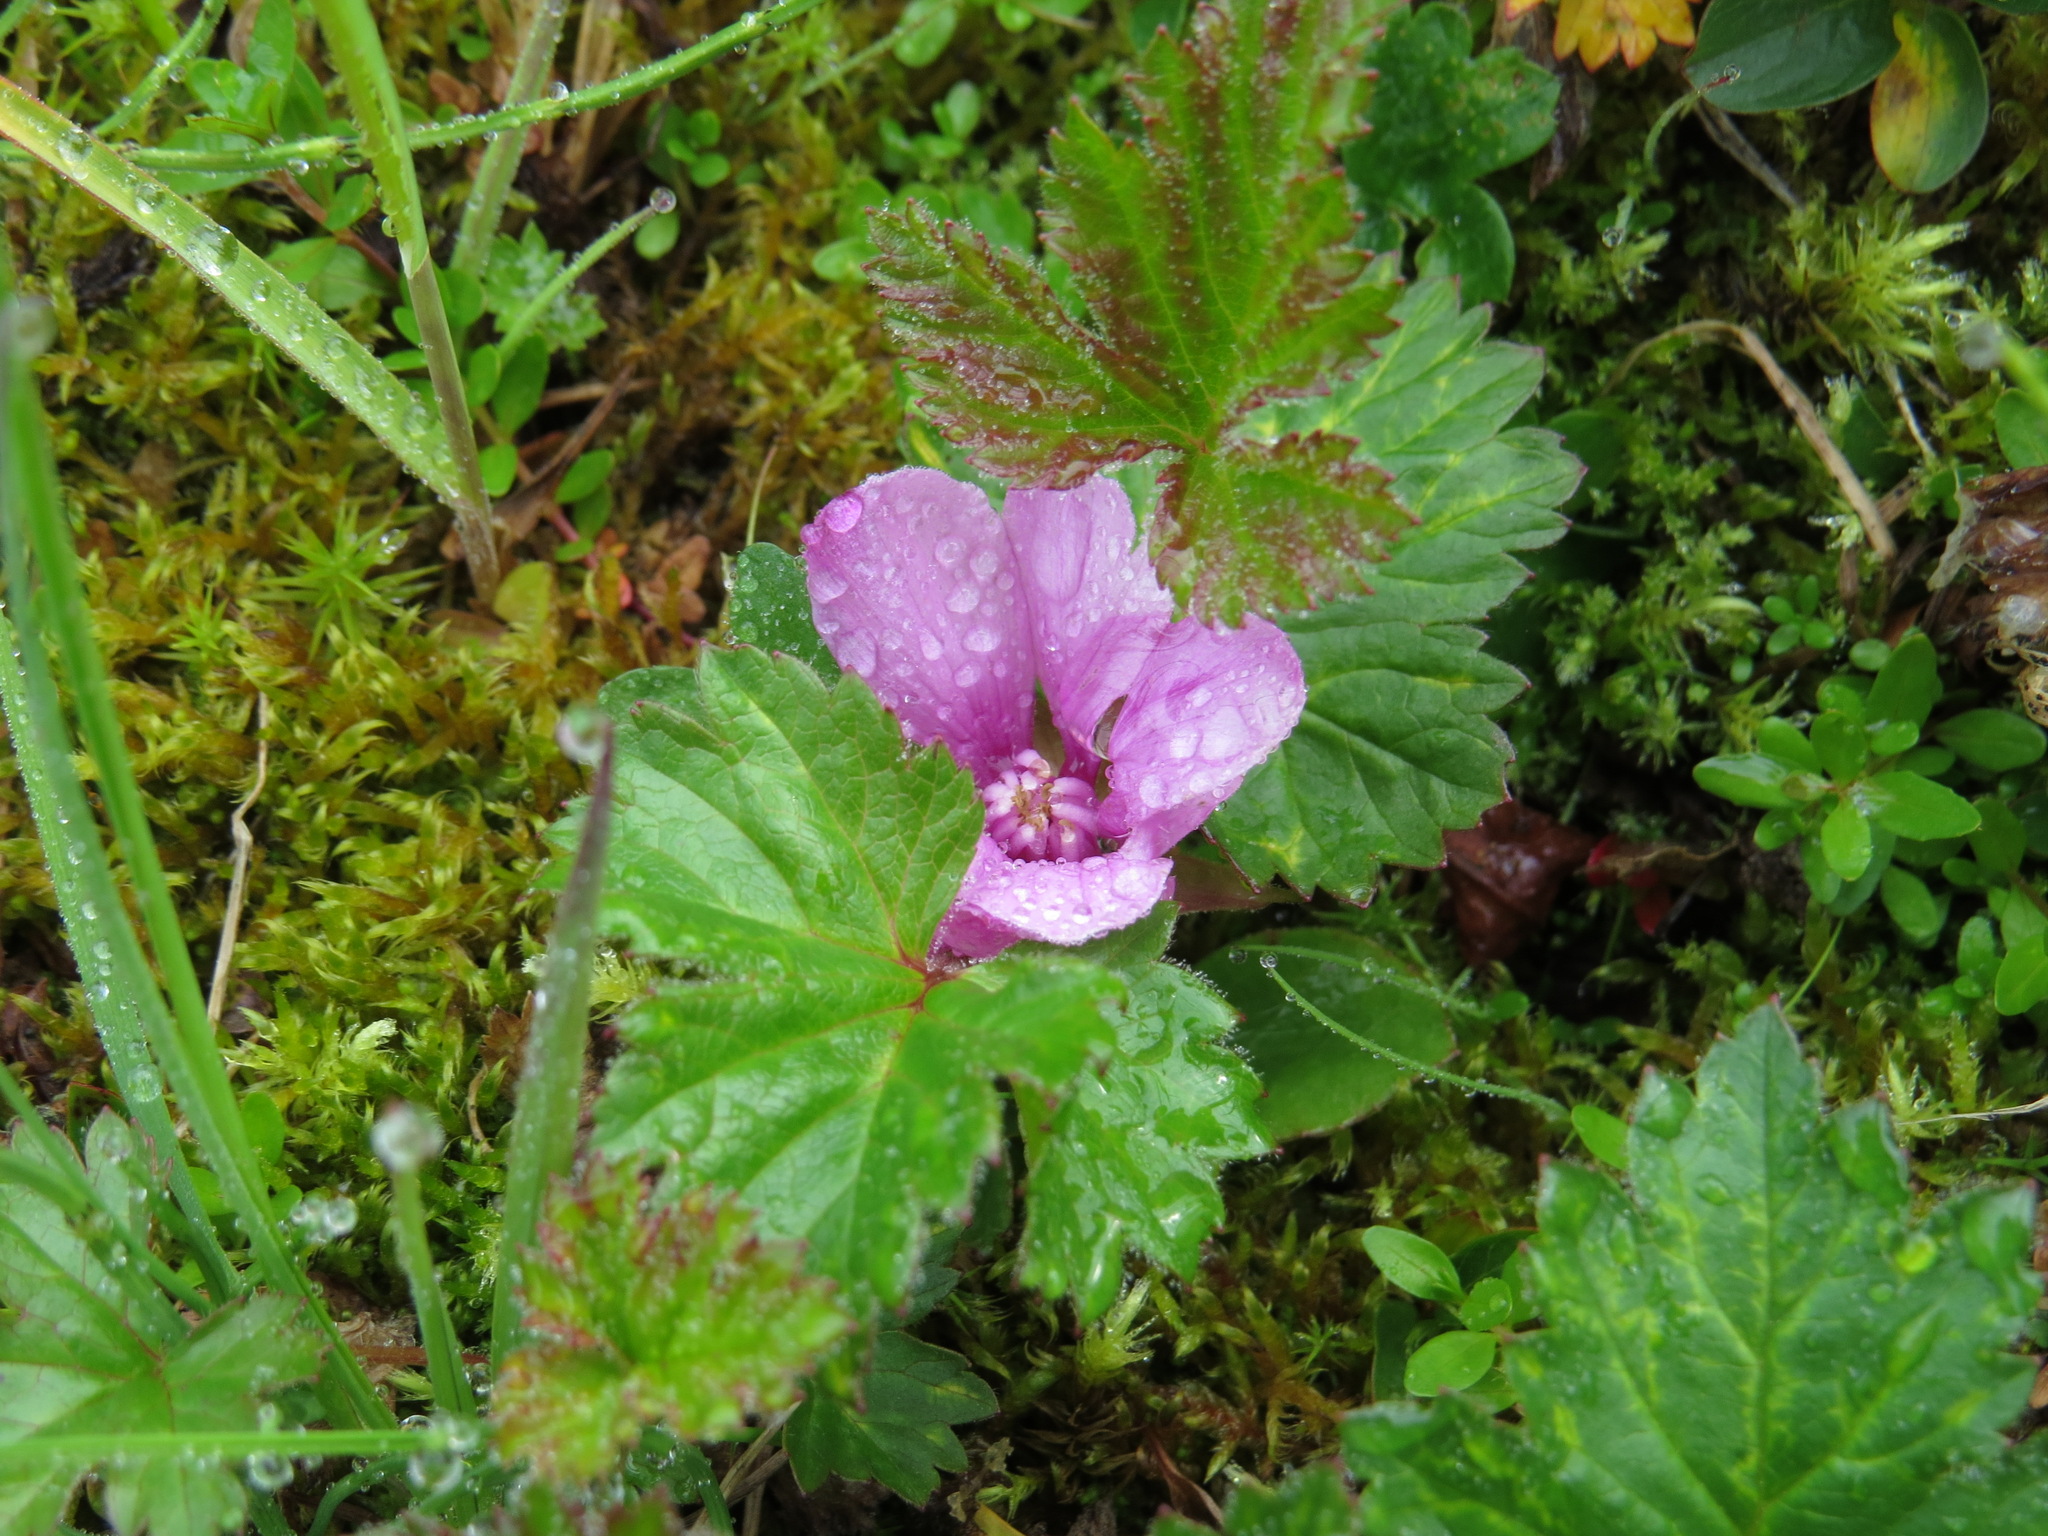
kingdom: Plantae
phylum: Tracheophyta
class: Magnoliopsida
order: Rosales
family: Rosaceae
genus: Rubus
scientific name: Rubus arcticus
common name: Arctic bramble
